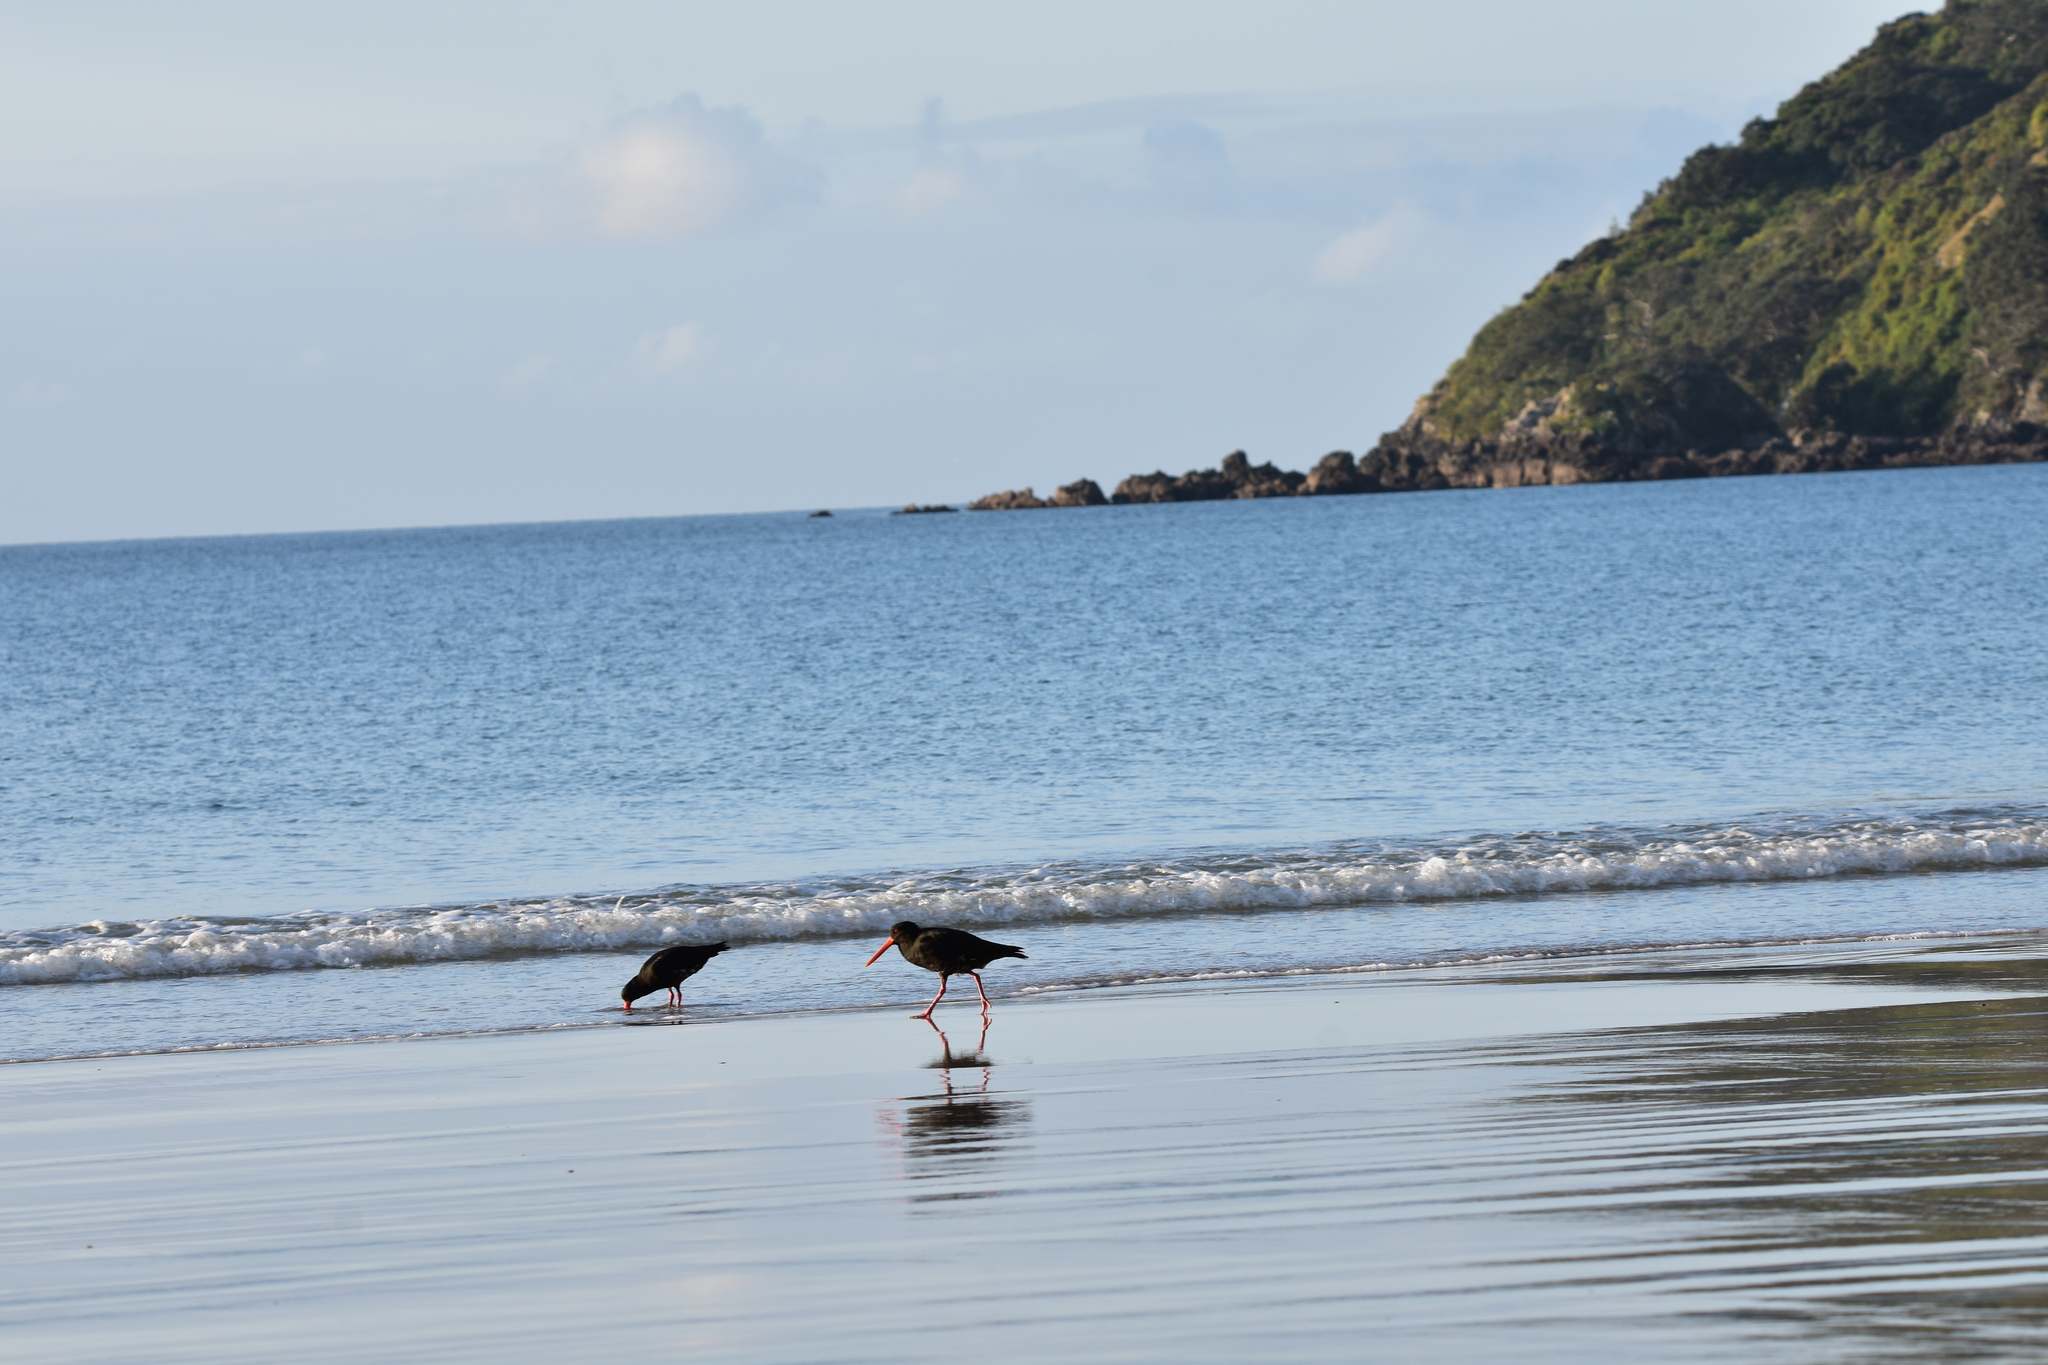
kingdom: Animalia
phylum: Chordata
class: Aves
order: Charadriiformes
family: Haematopodidae
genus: Haematopus
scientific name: Haematopus unicolor
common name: Variable oystercatcher
